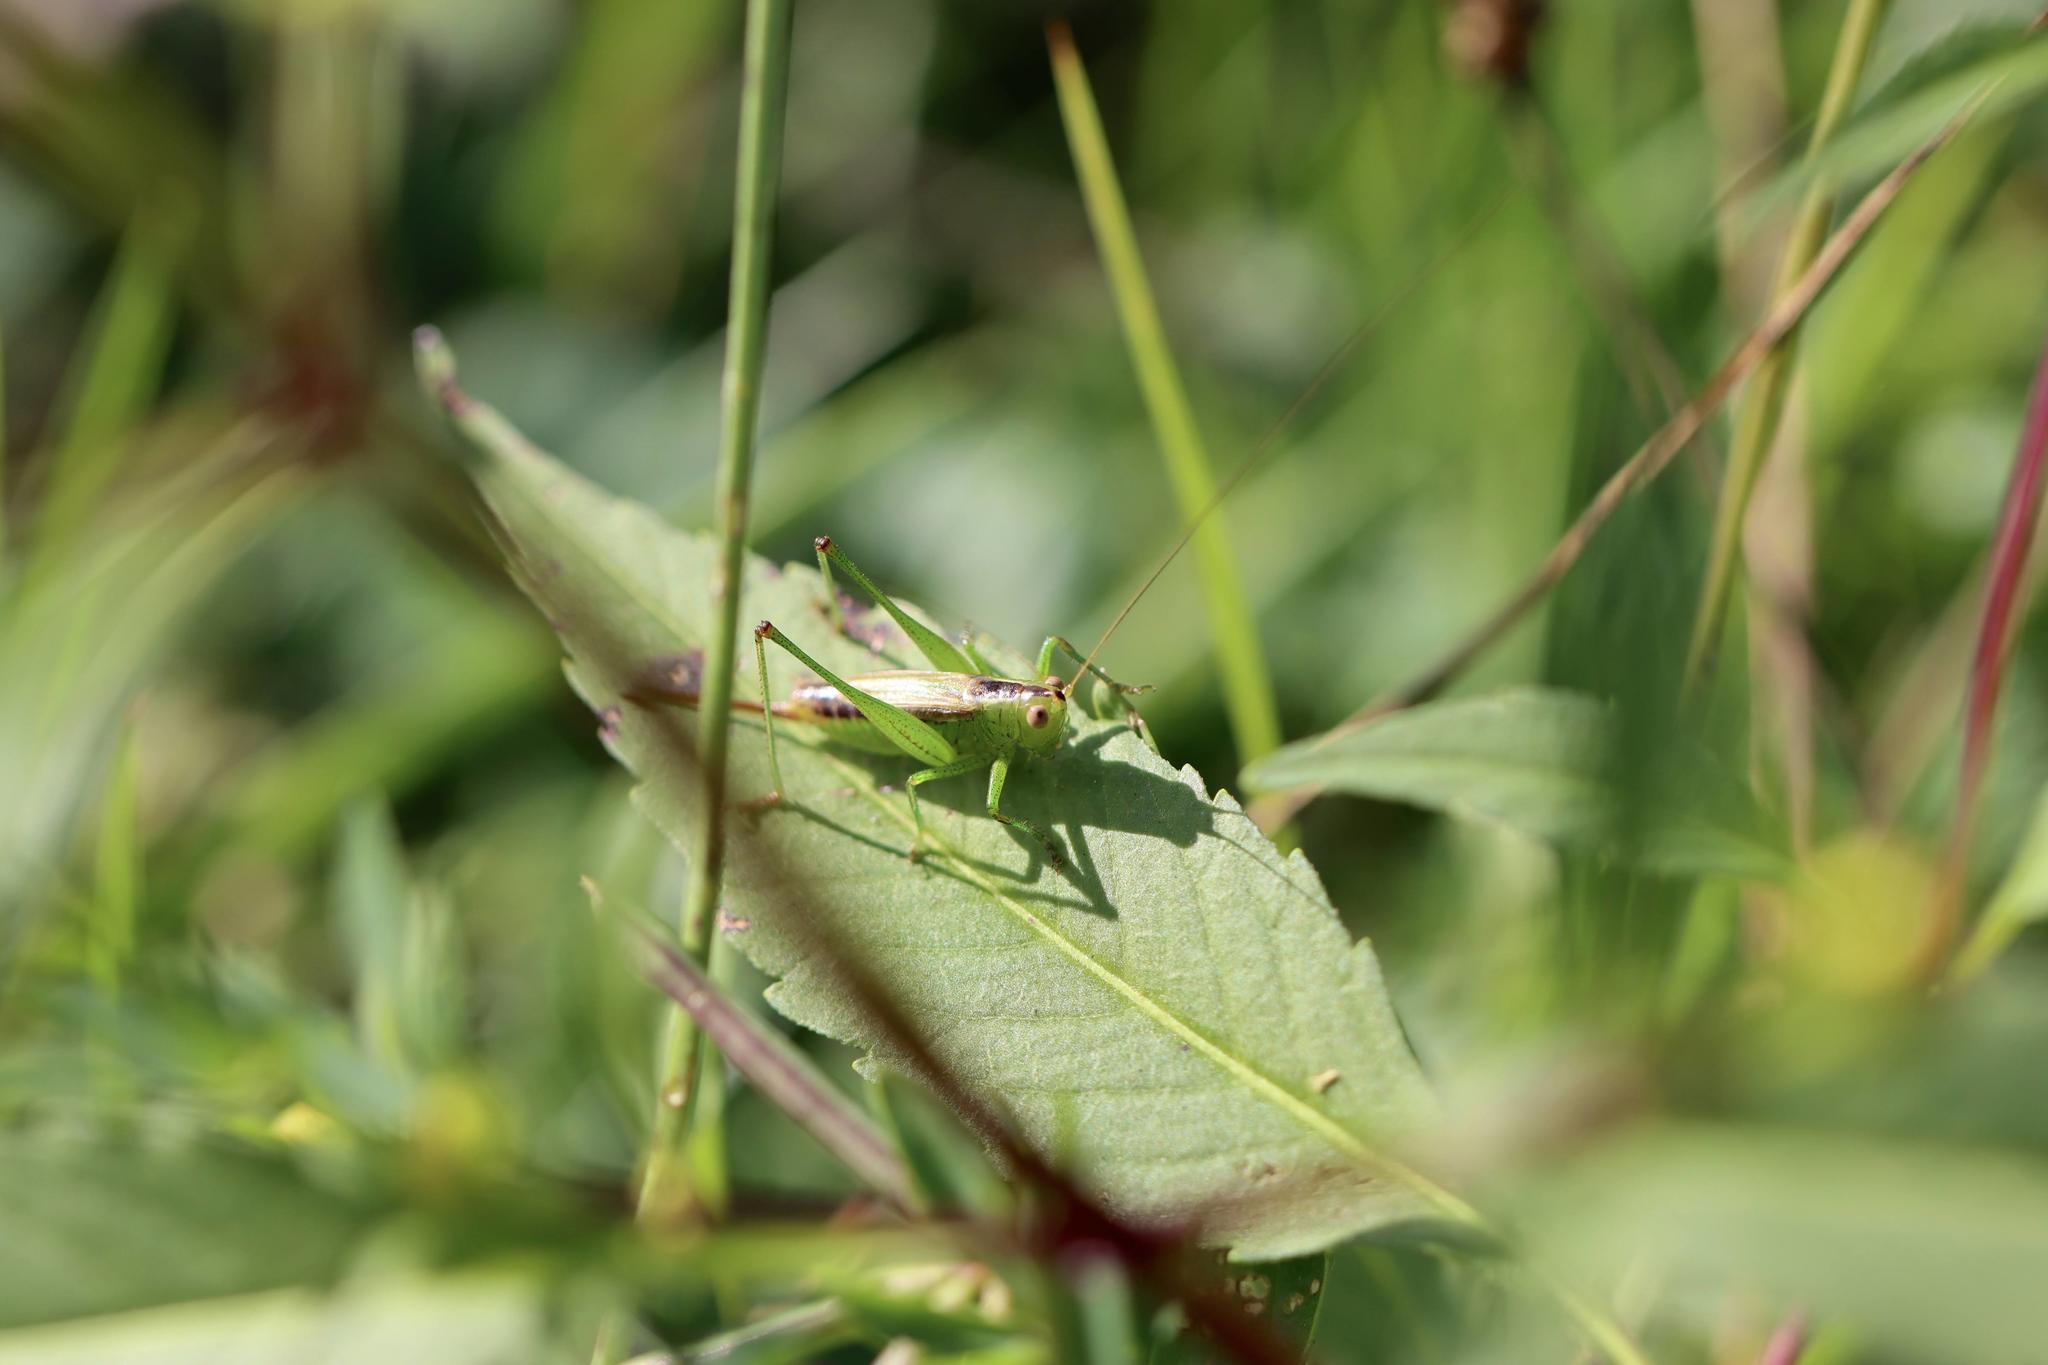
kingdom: Animalia
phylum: Arthropoda
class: Insecta
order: Orthoptera
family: Tettigoniidae
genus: Conocephalus
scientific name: Conocephalus brevipennis
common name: Short-winged meadow katydid
